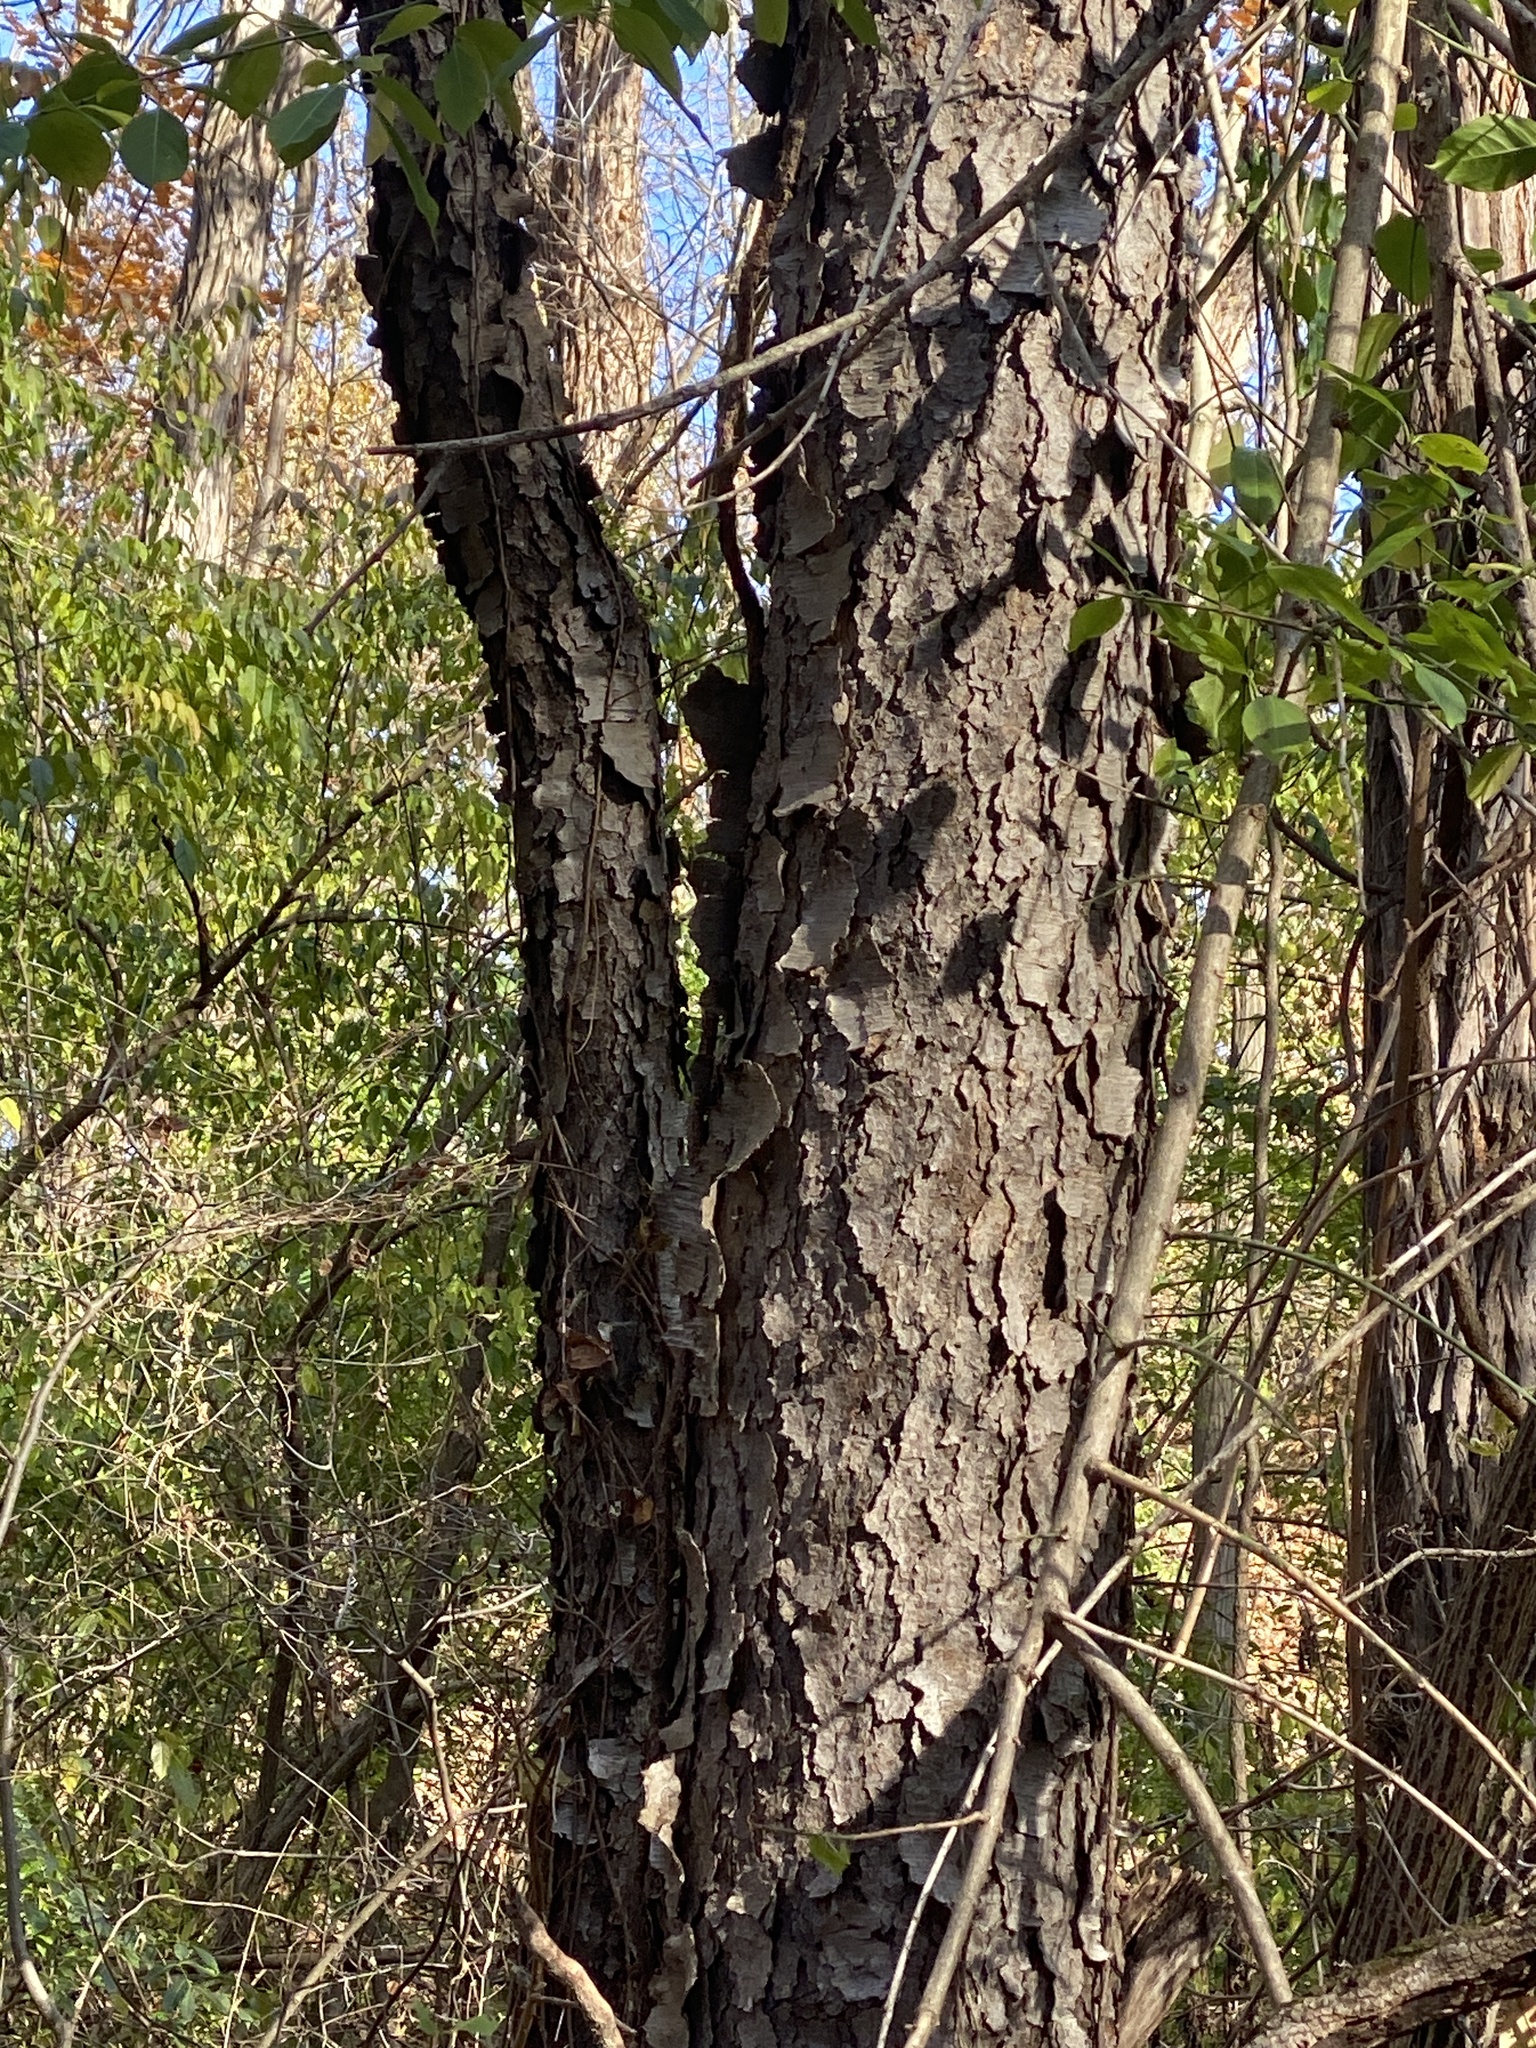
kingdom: Plantae
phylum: Tracheophyta
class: Magnoliopsida
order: Rosales
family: Rosaceae
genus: Prunus
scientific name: Prunus serotina
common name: Black cherry
